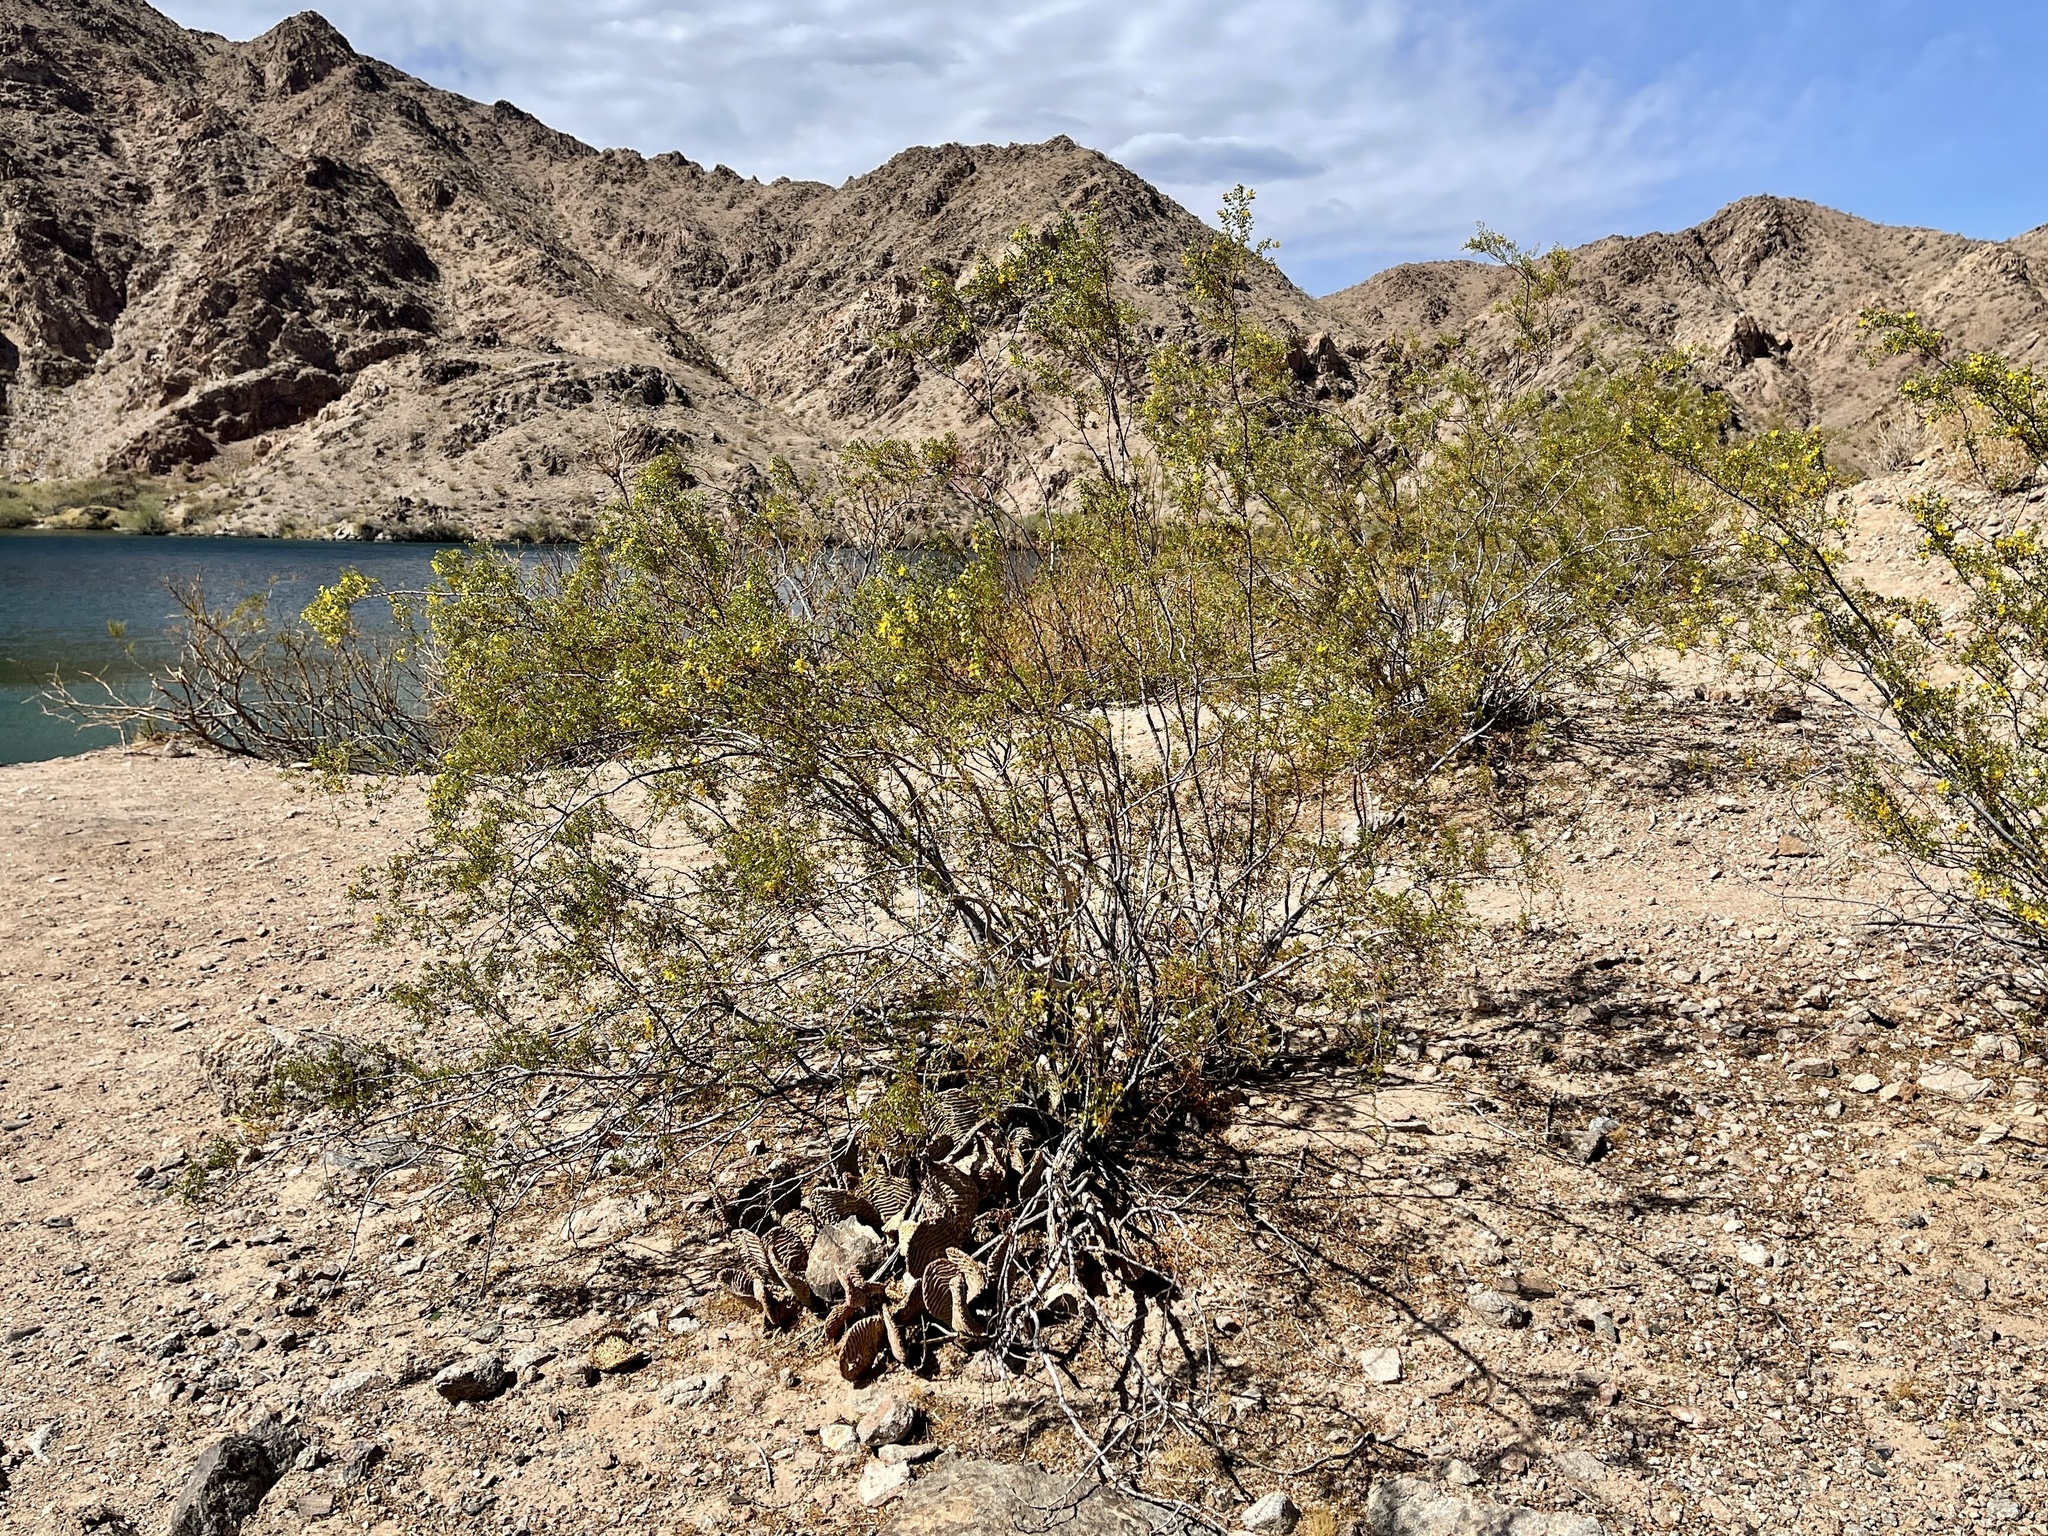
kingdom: Plantae
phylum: Tracheophyta
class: Magnoliopsida
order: Zygophyllales
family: Zygophyllaceae
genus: Larrea
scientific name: Larrea tridentata
